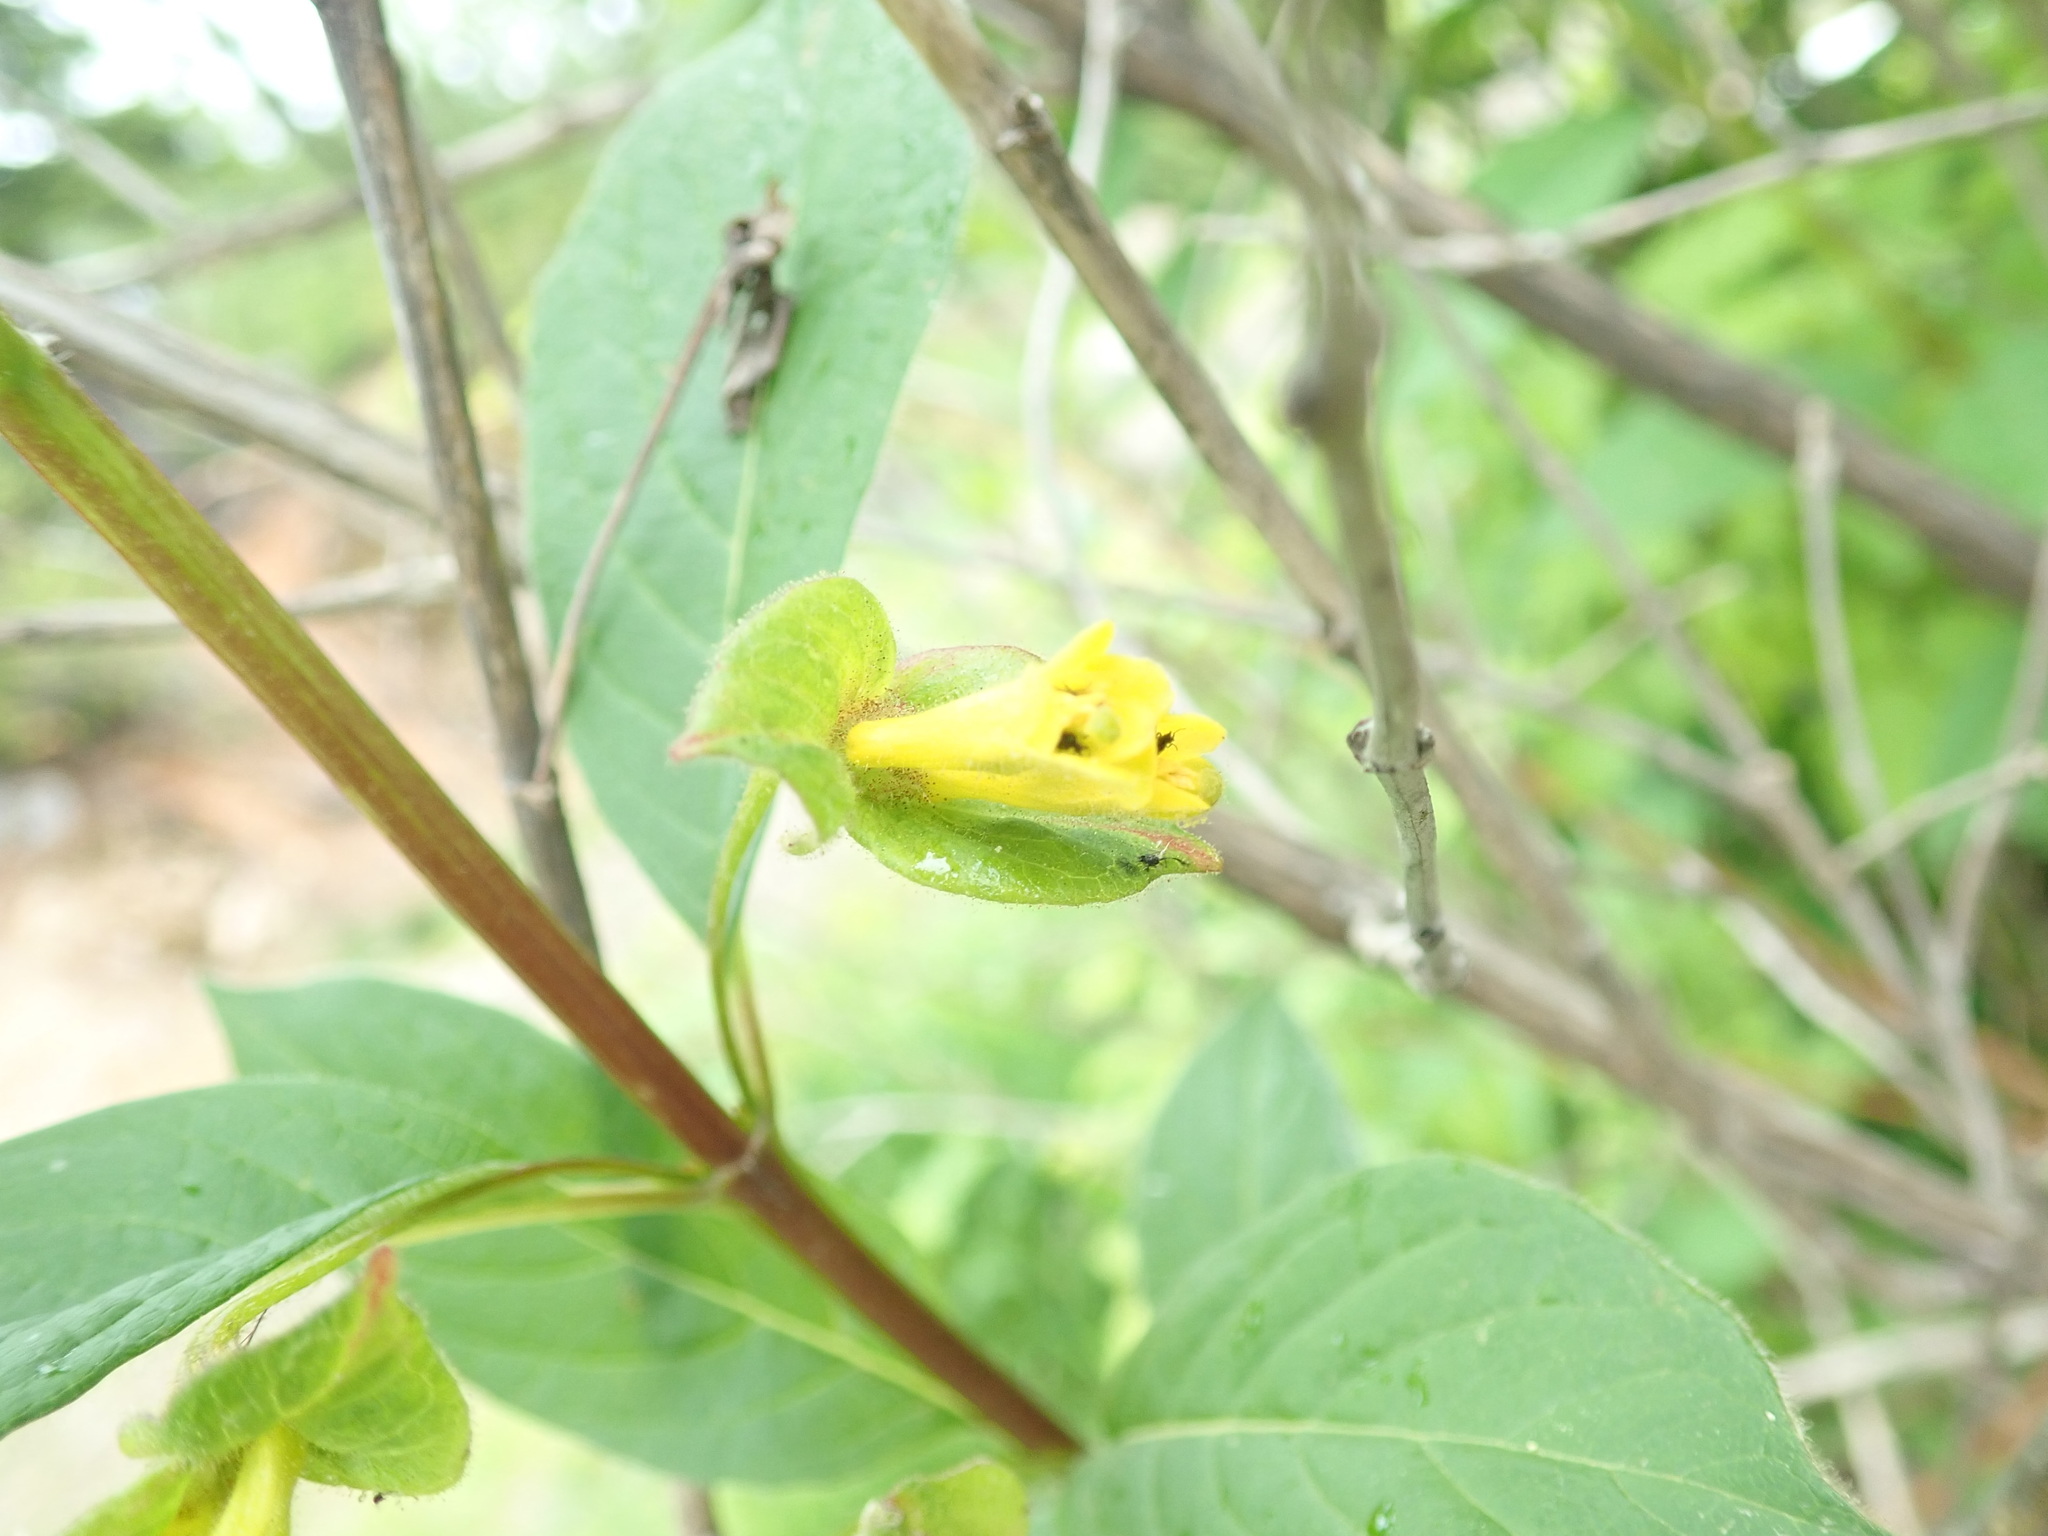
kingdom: Plantae
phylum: Tracheophyta
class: Magnoliopsida
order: Dipsacales
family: Caprifoliaceae
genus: Lonicera
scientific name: Lonicera involucrata
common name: Californian honeysuckle
